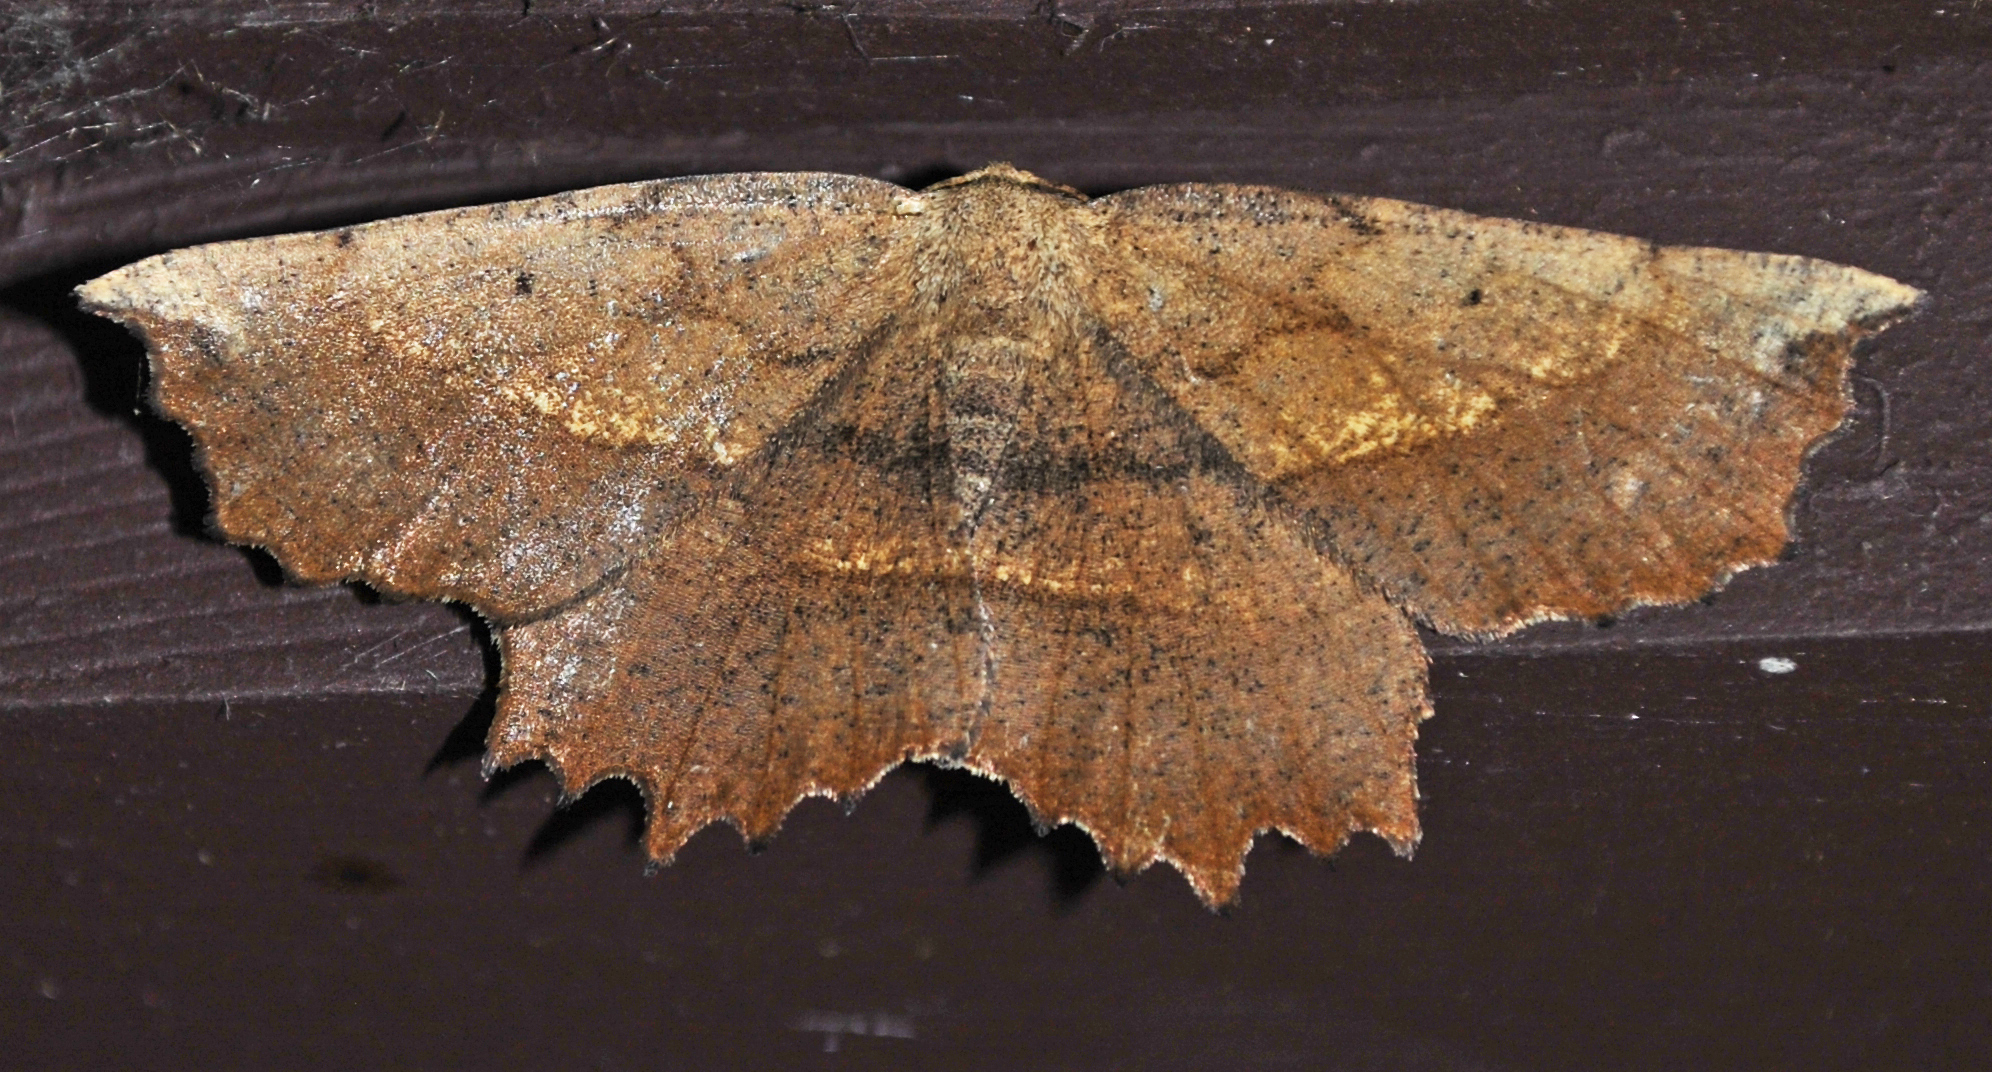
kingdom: Animalia
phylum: Arthropoda
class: Insecta
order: Lepidoptera
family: Geometridae
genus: Euchlaena
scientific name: Euchlaena muzaria
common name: Muzaria euchlaena
